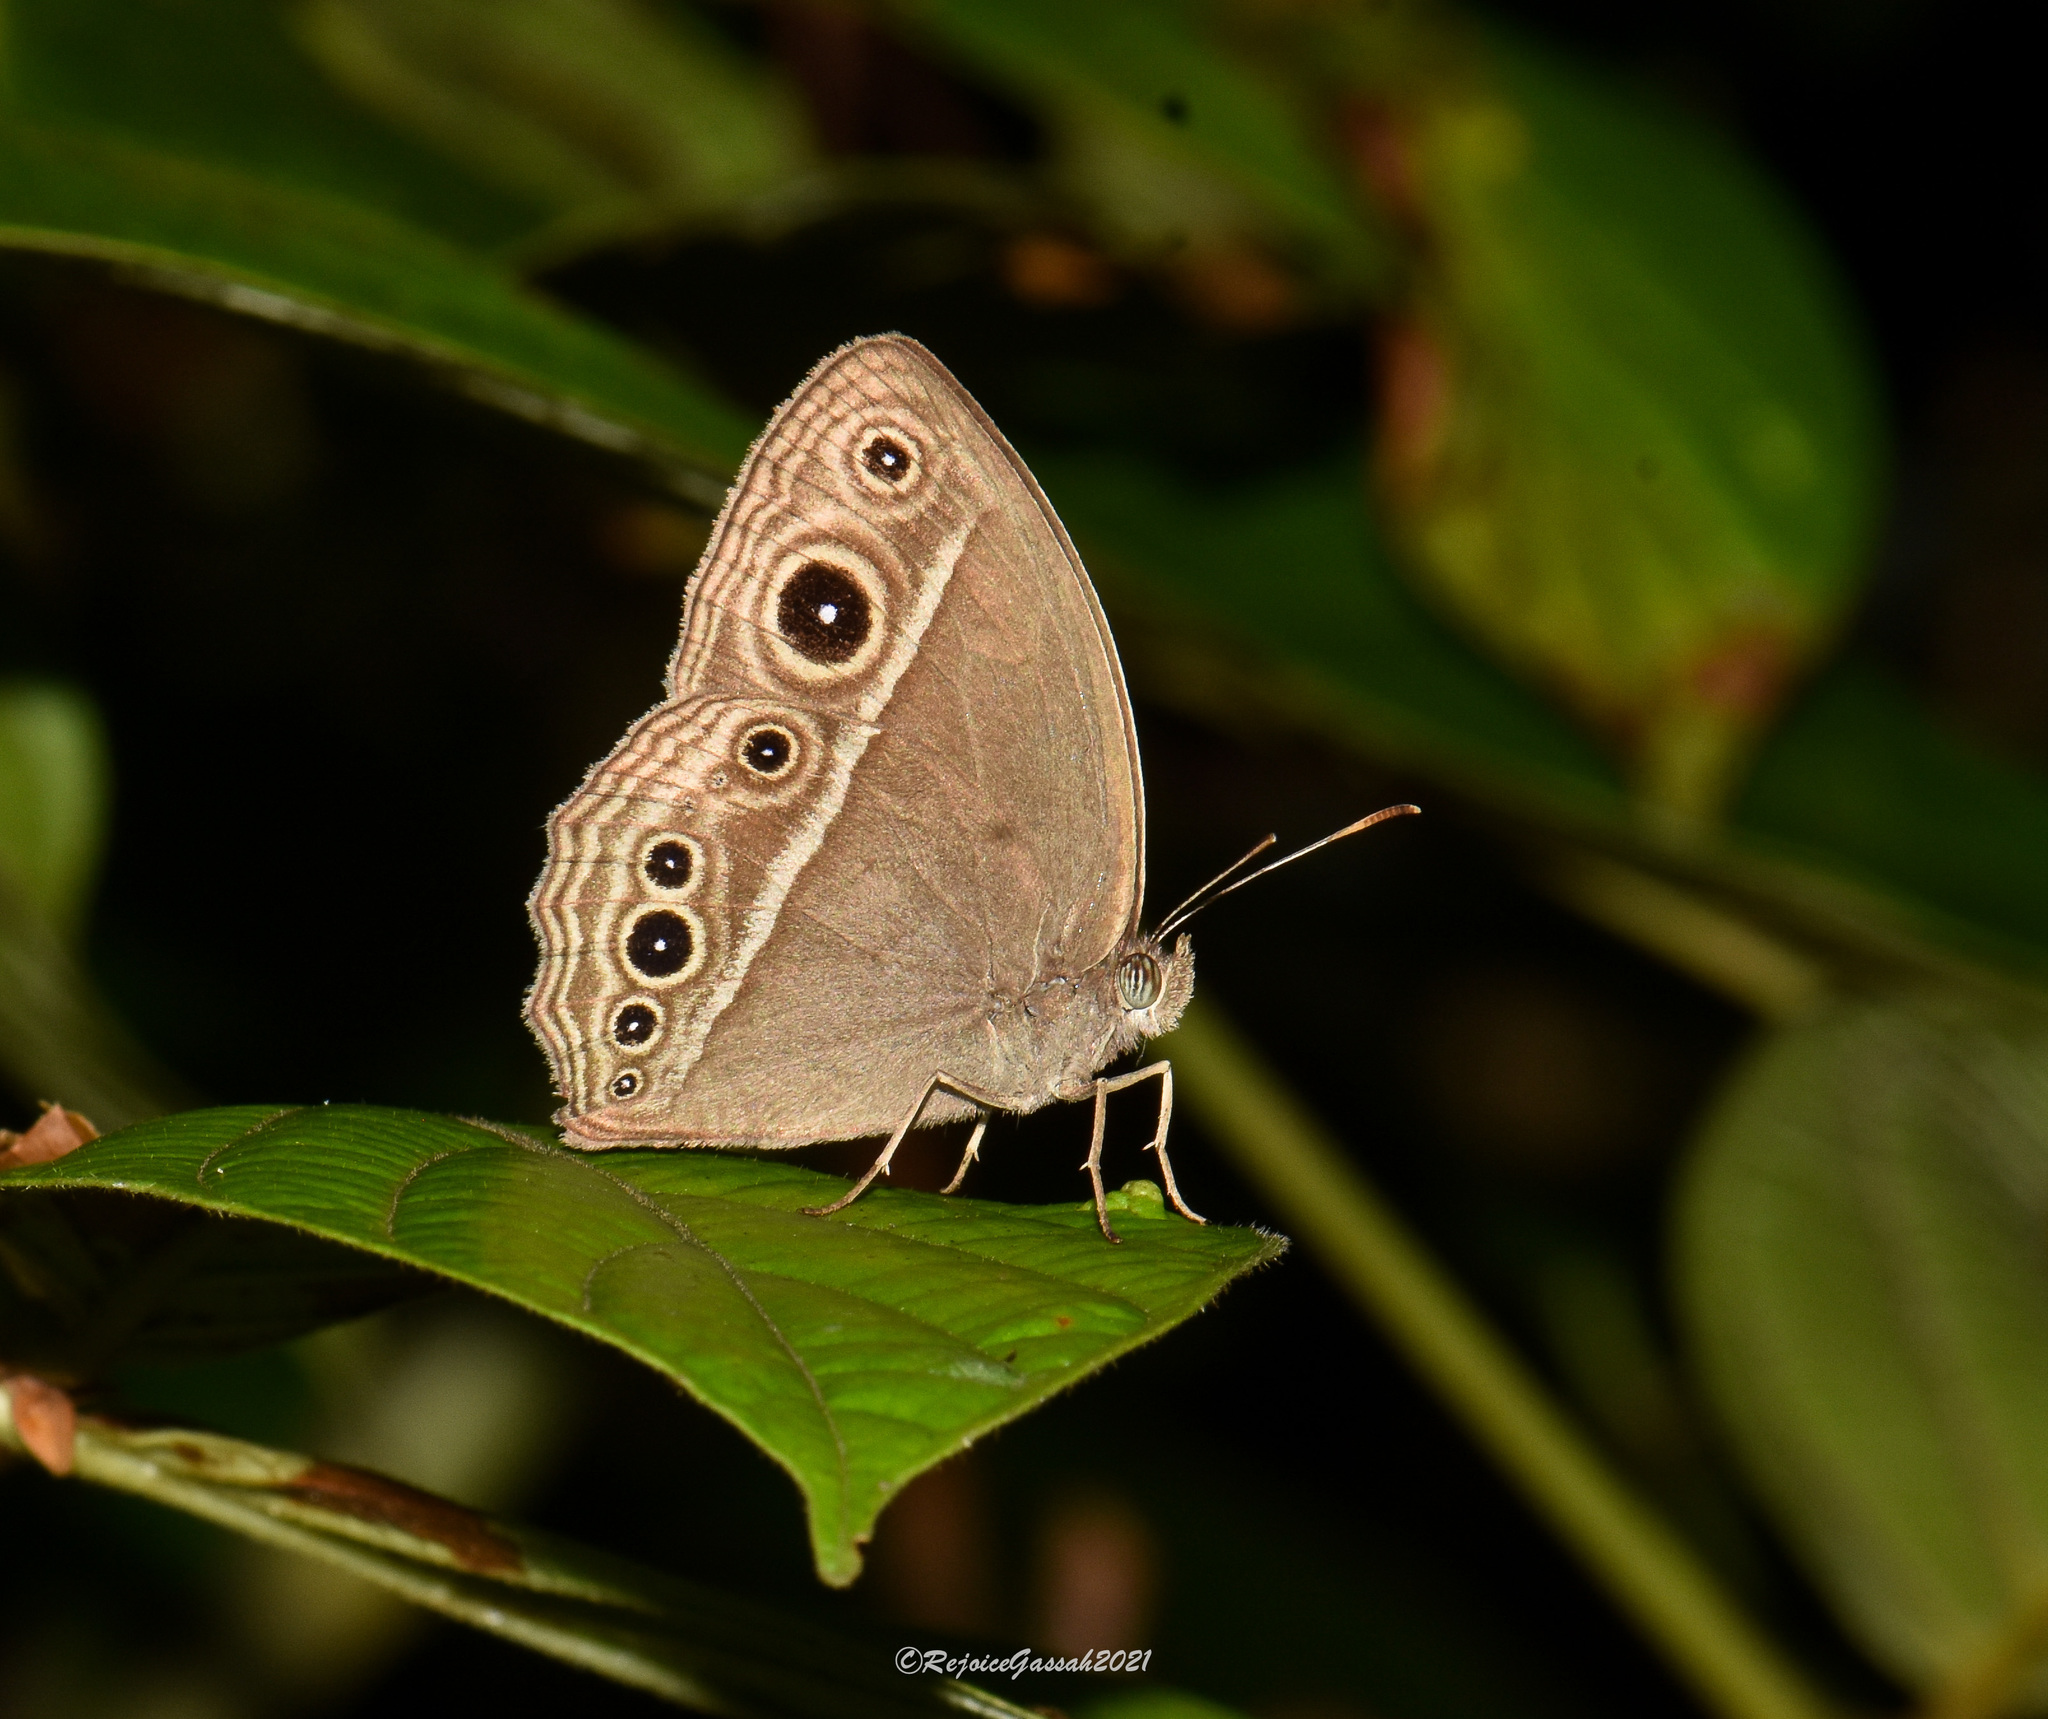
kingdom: Animalia
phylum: Arthropoda
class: Insecta
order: Lepidoptera
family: Nymphalidae
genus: Mycalesis
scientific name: Mycalesis mineus
